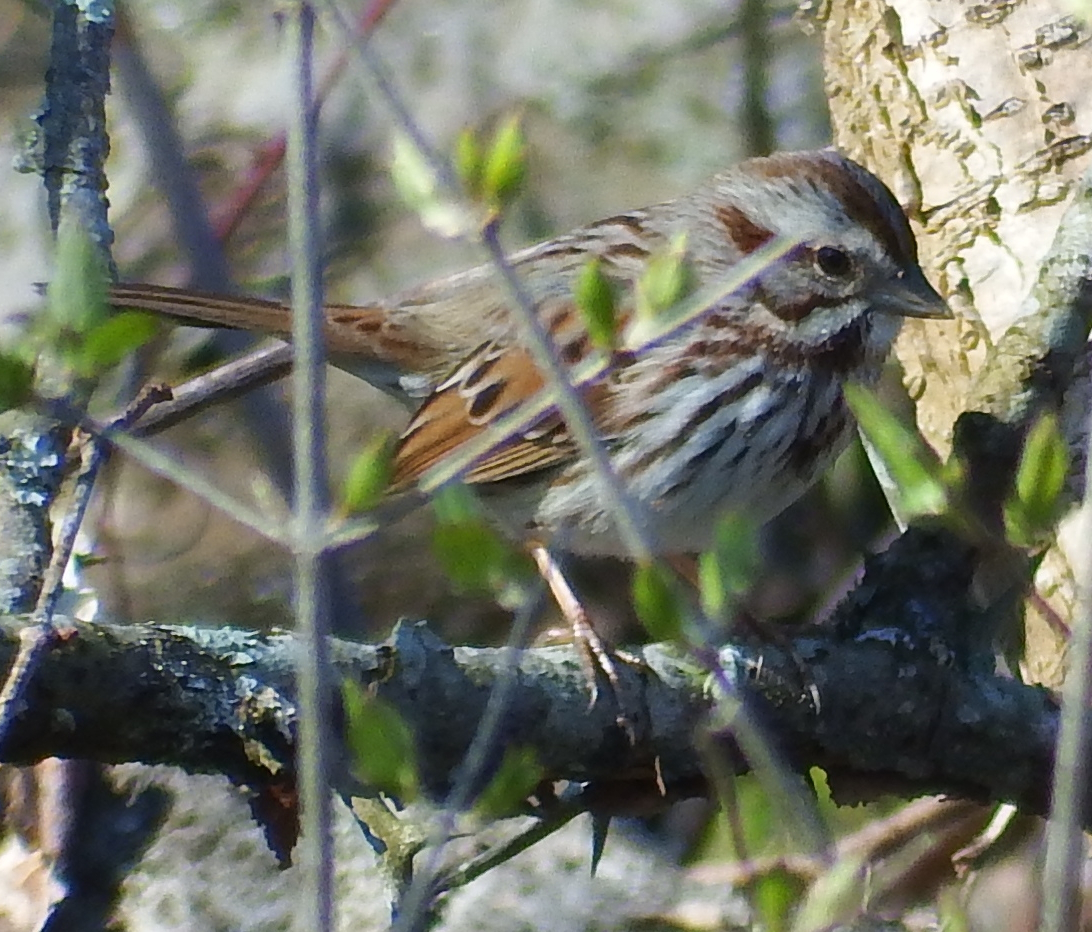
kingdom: Animalia
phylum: Chordata
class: Aves
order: Passeriformes
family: Passerellidae
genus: Melospiza
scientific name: Melospiza melodia
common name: Song sparrow
